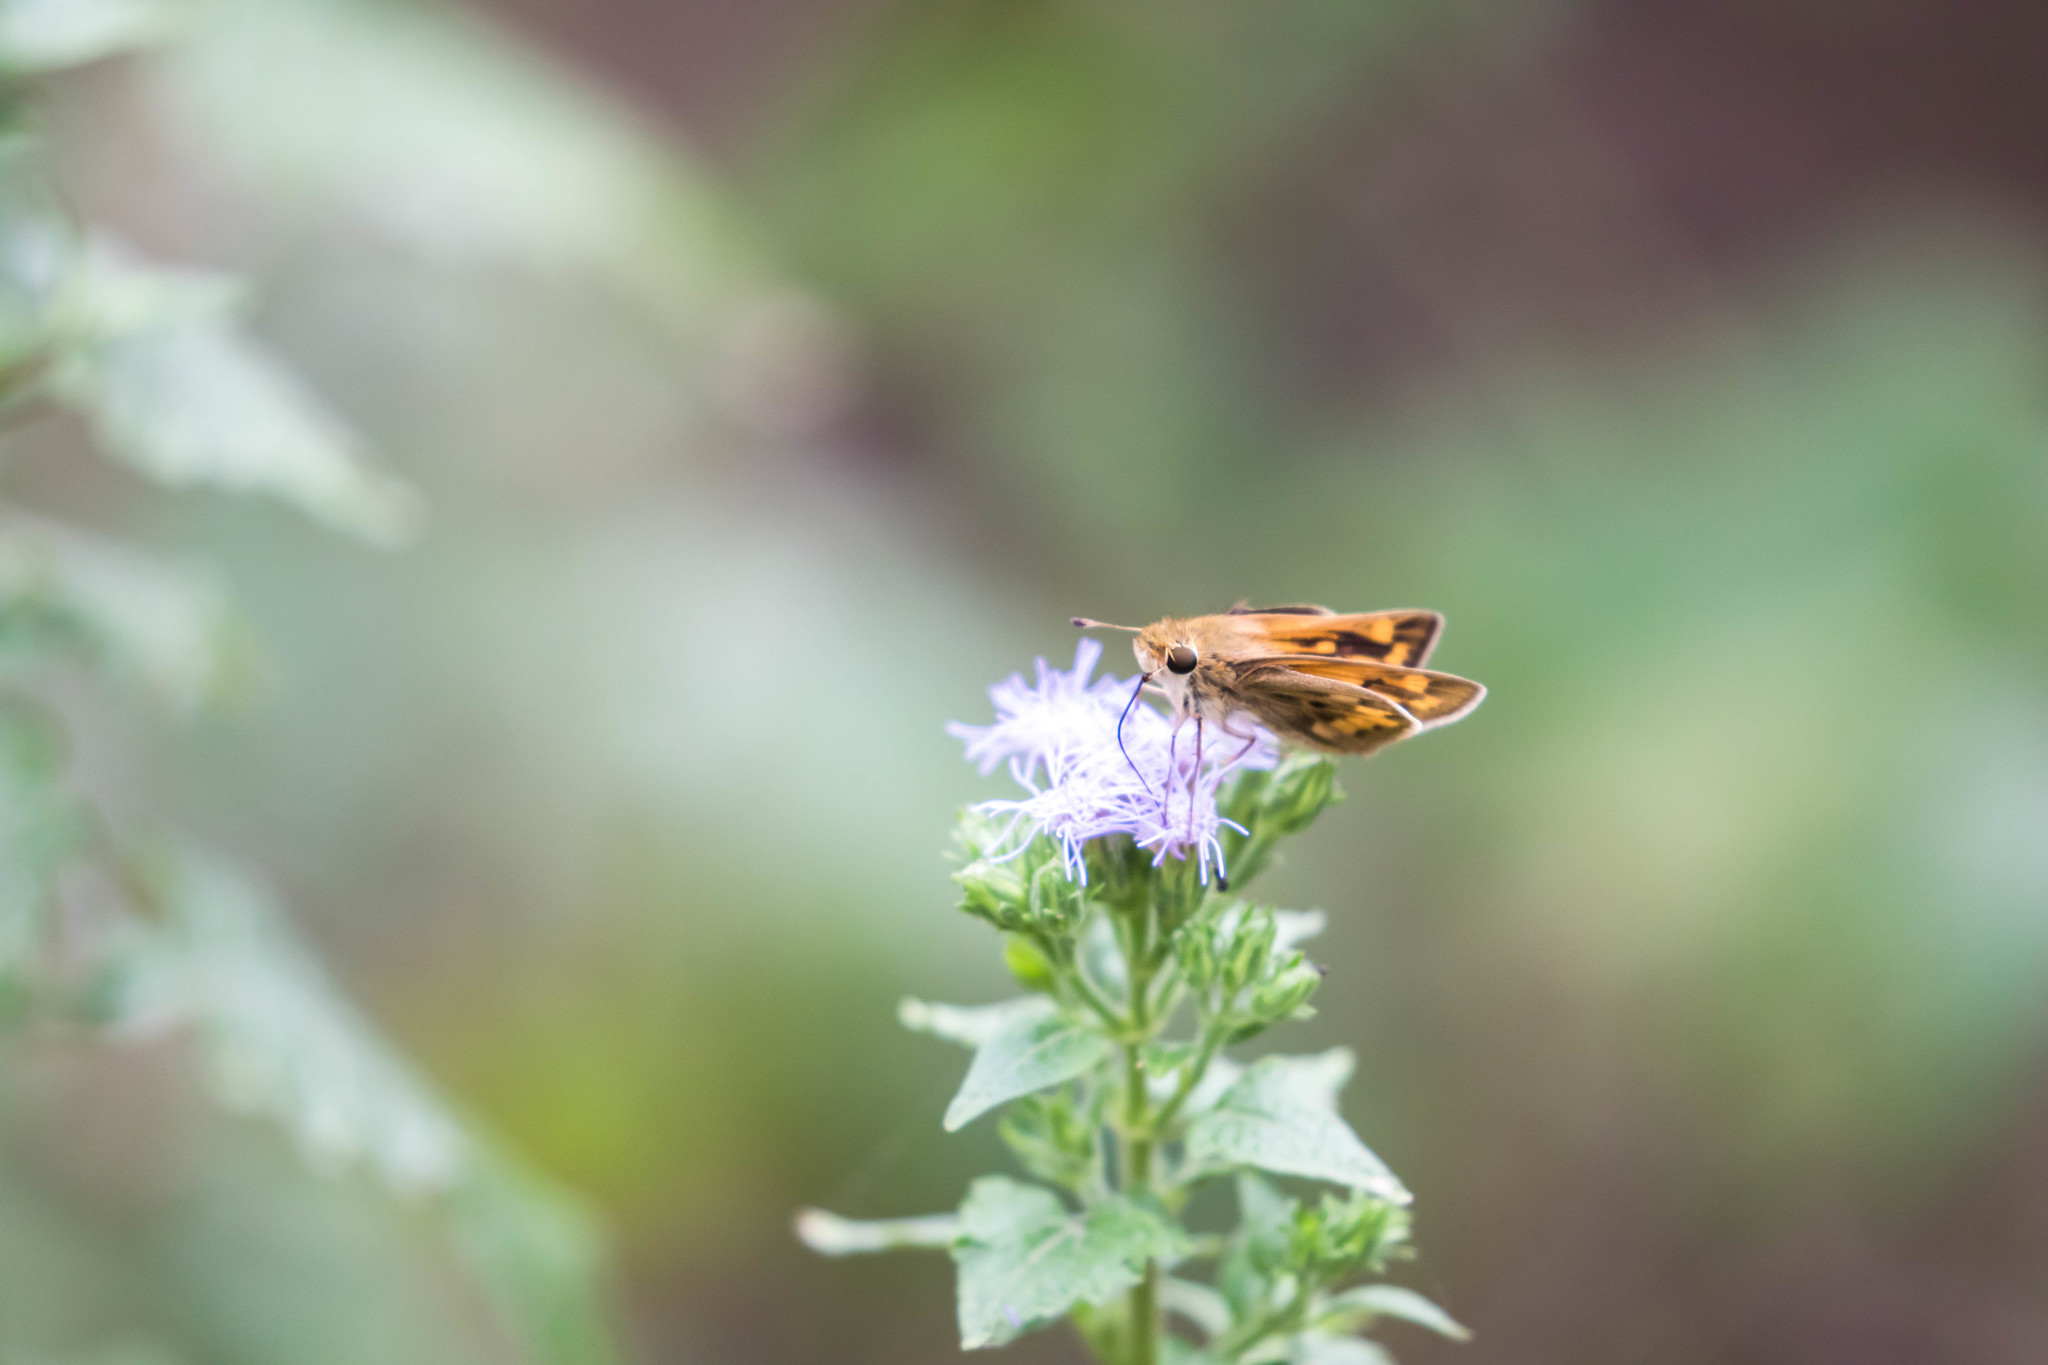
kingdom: Animalia
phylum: Arthropoda
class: Insecta
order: Lepidoptera
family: Hesperiidae
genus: Hylephila
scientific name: Hylephila phyleus
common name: Fiery skipper
